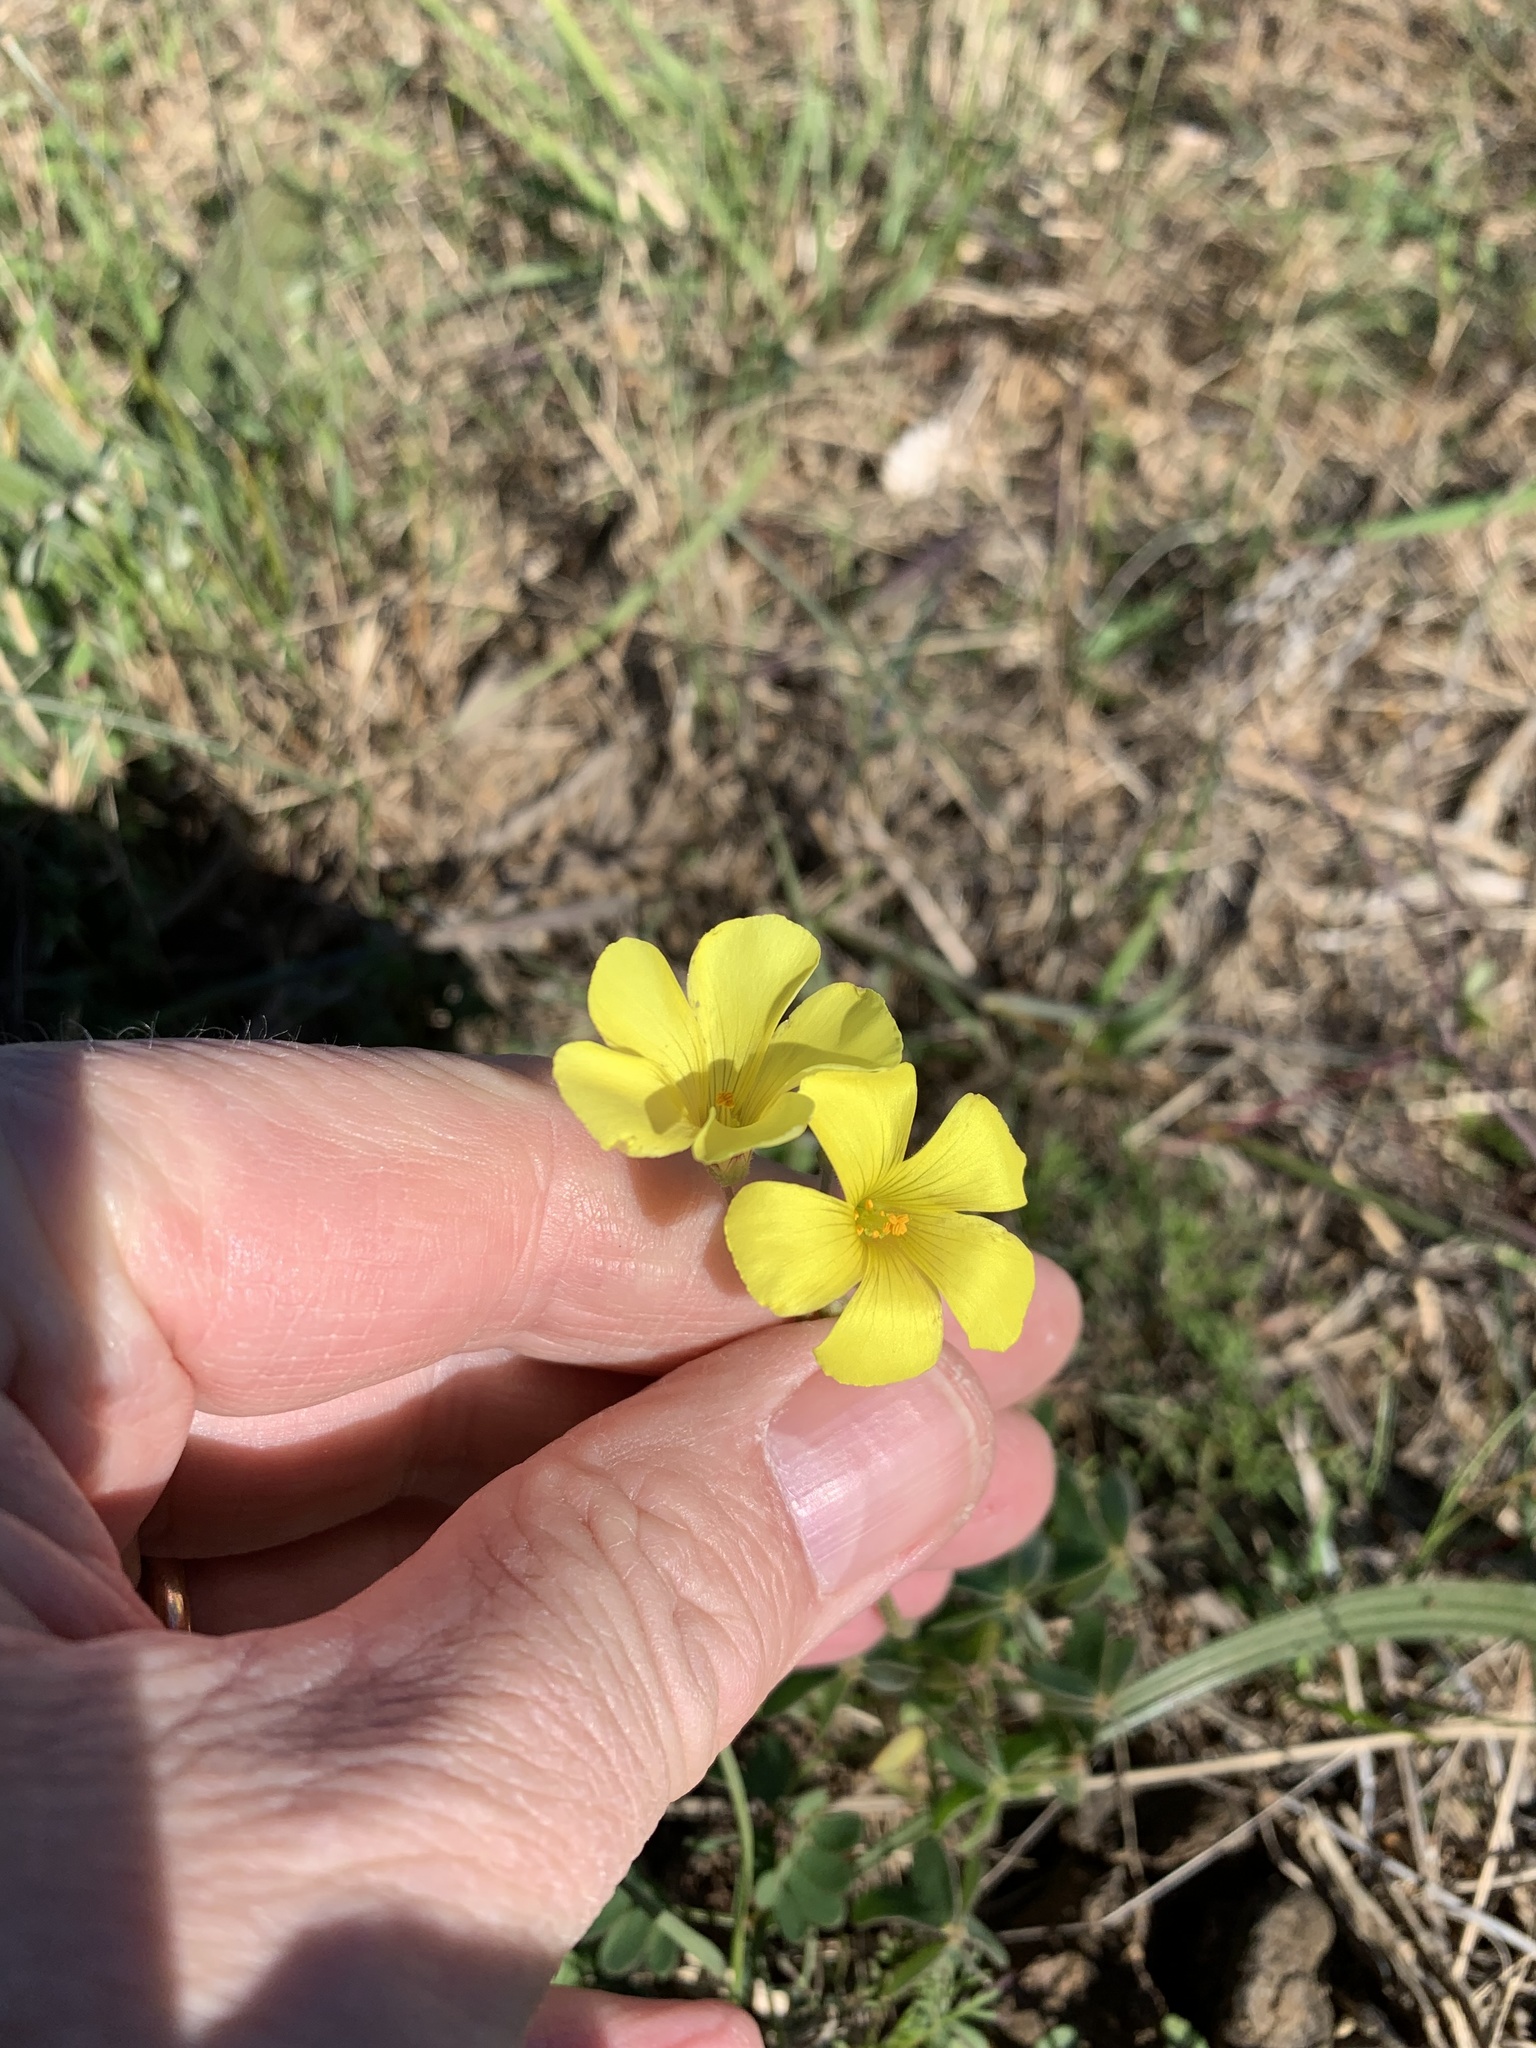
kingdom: Plantae
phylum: Tracheophyta
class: Magnoliopsida
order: Oxalidales
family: Oxalidaceae
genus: Oxalis
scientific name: Oxalis pes-caprae
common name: Bermuda-buttercup
